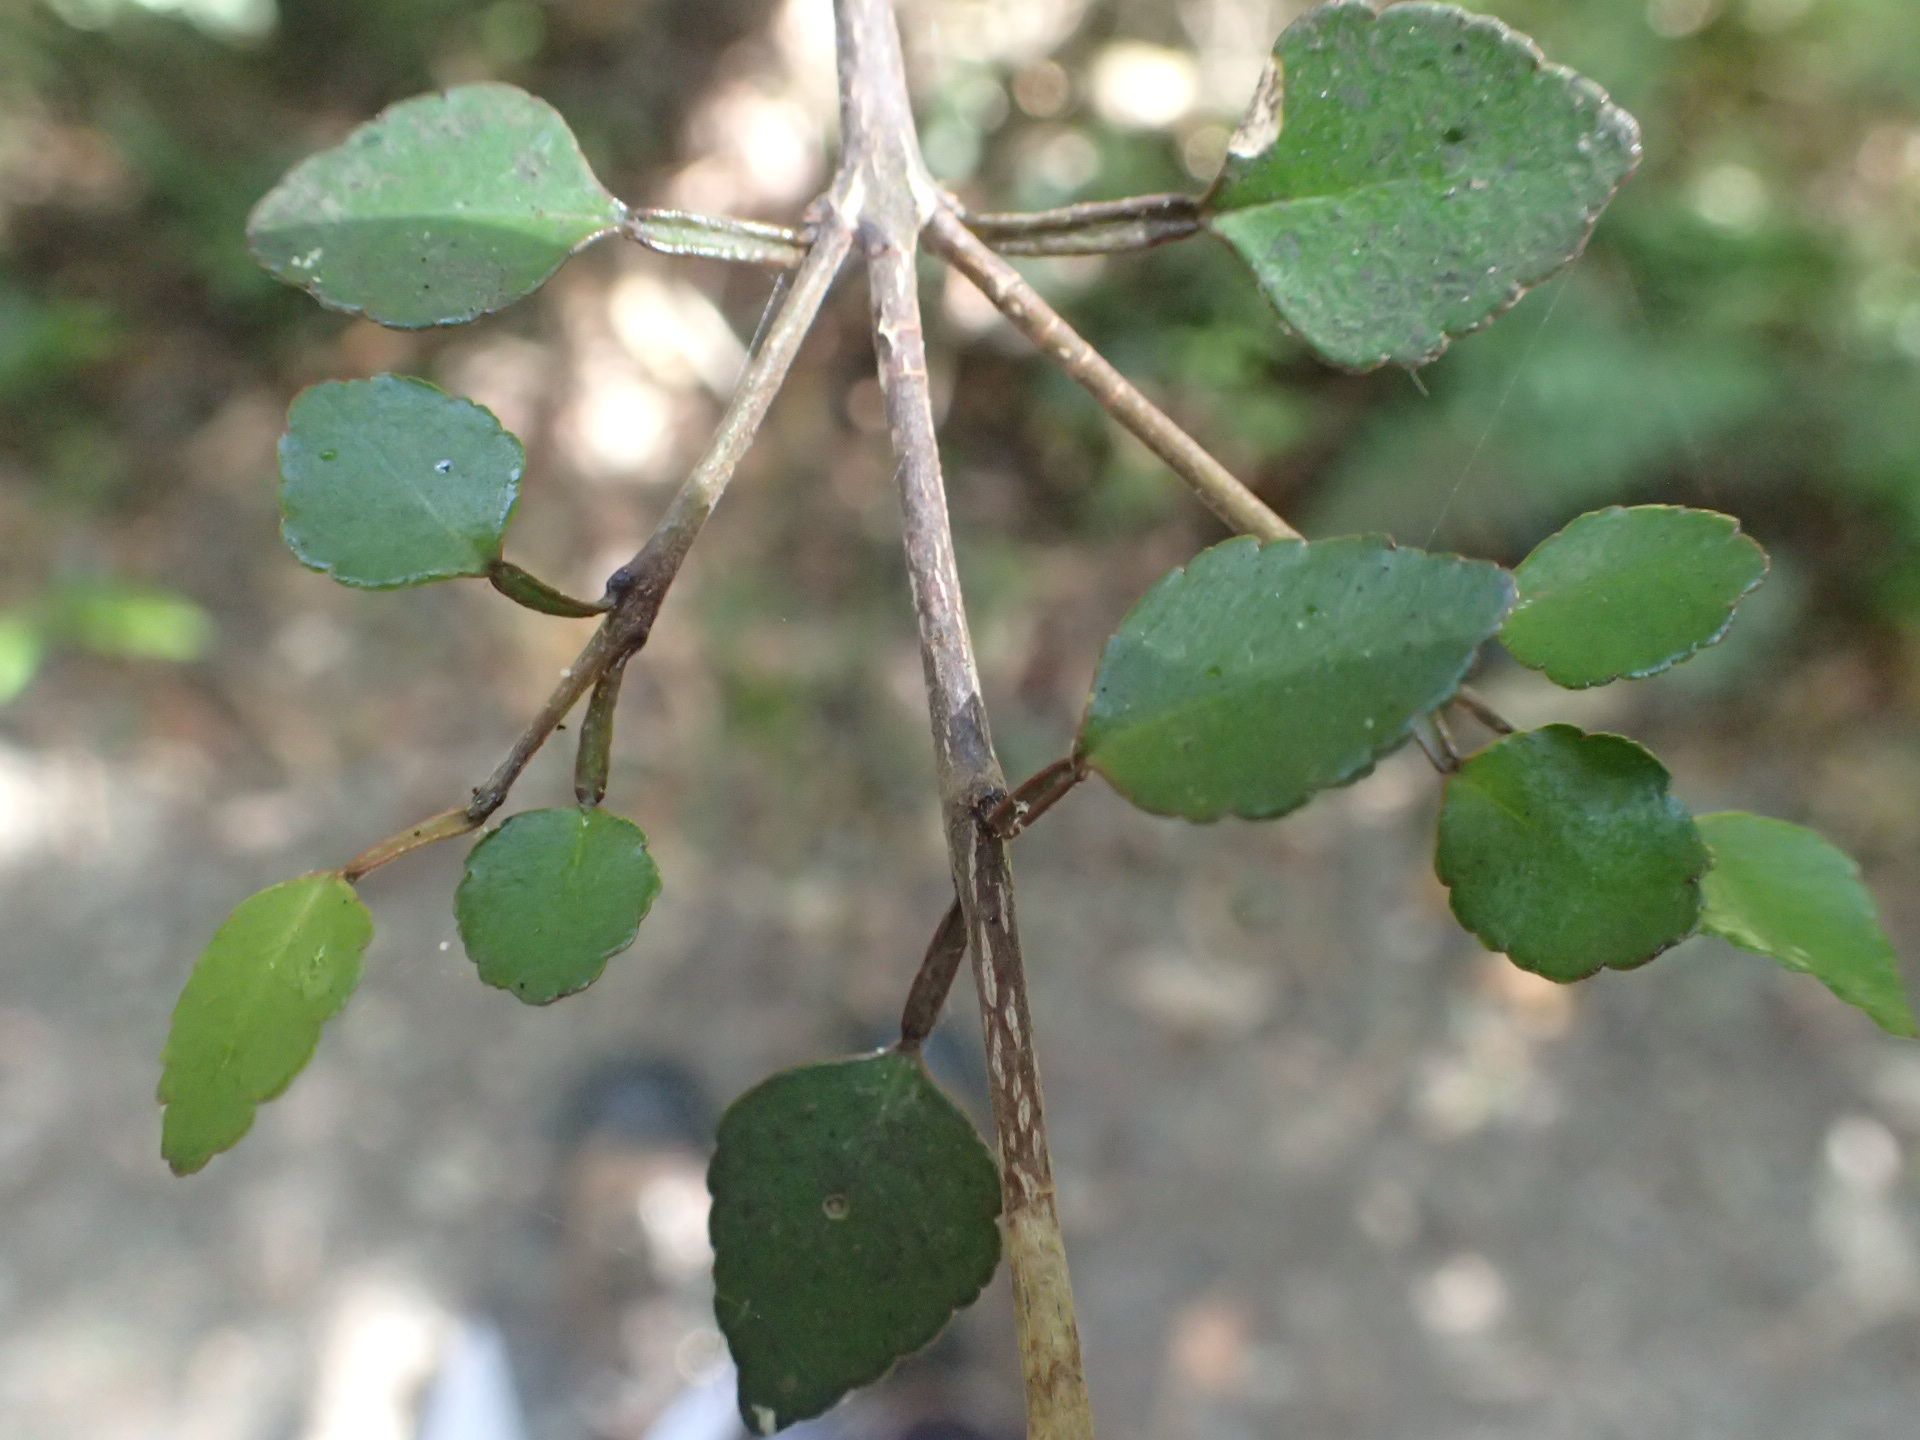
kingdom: Plantae
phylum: Tracheophyta
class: Magnoliopsida
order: Sapindales
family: Rutaceae
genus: Melicope
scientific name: Melicope simplex
